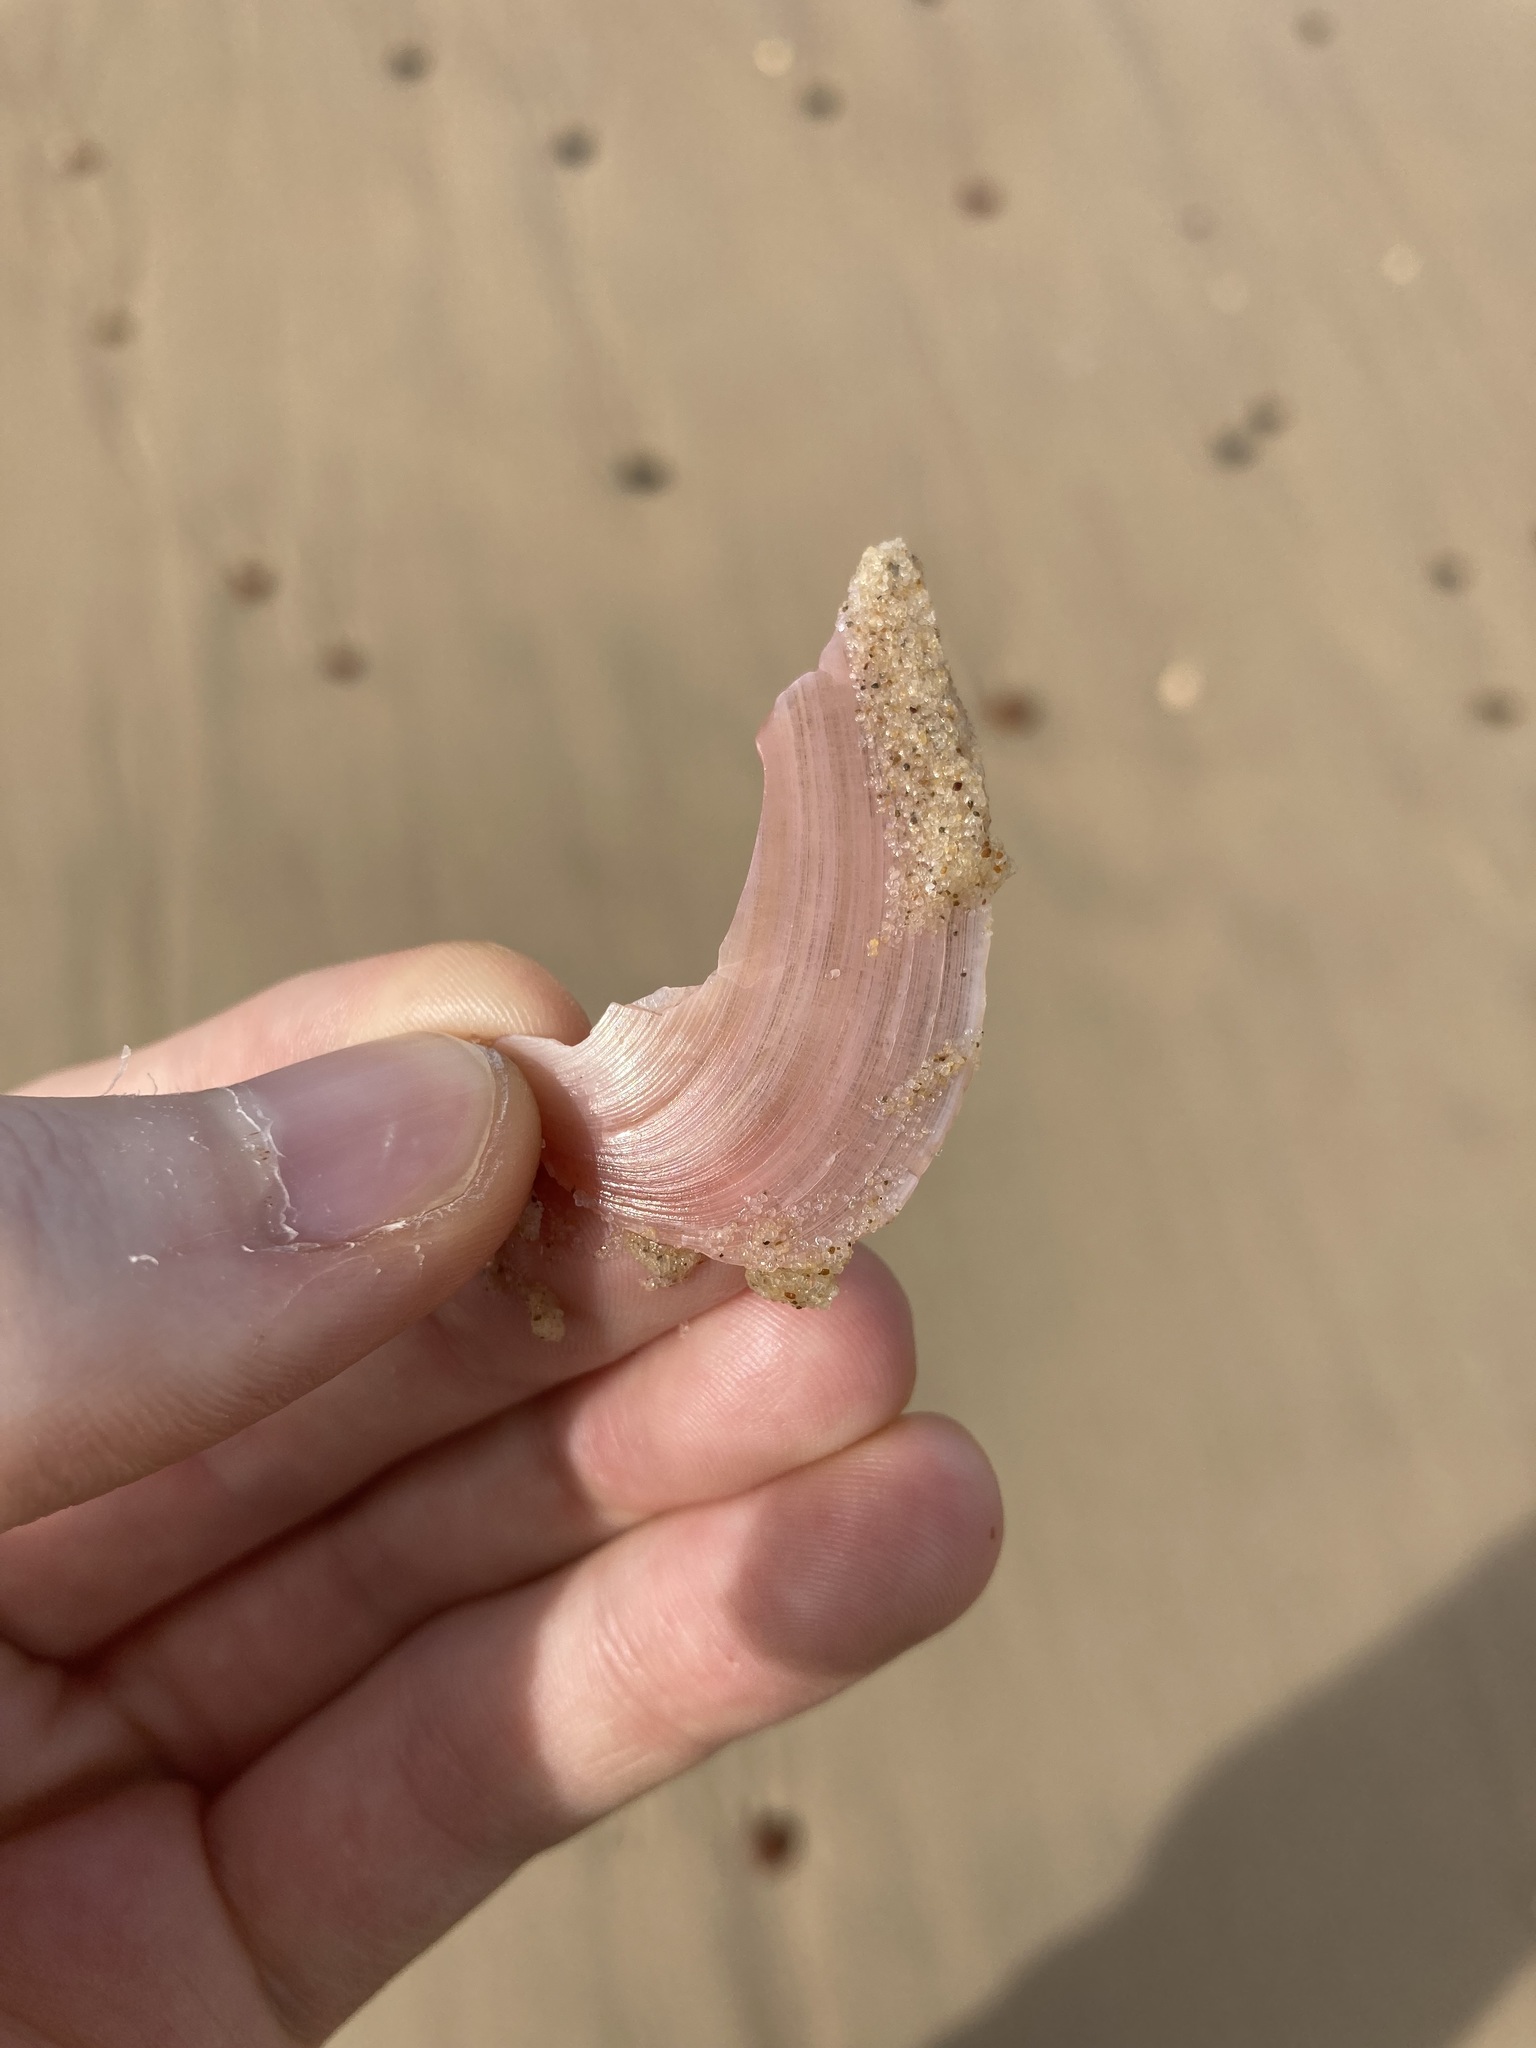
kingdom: Animalia
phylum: Mollusca
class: Bivalvia
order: Cardiida
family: Tellinidae
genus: Tellinota
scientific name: Tellinota albinella
